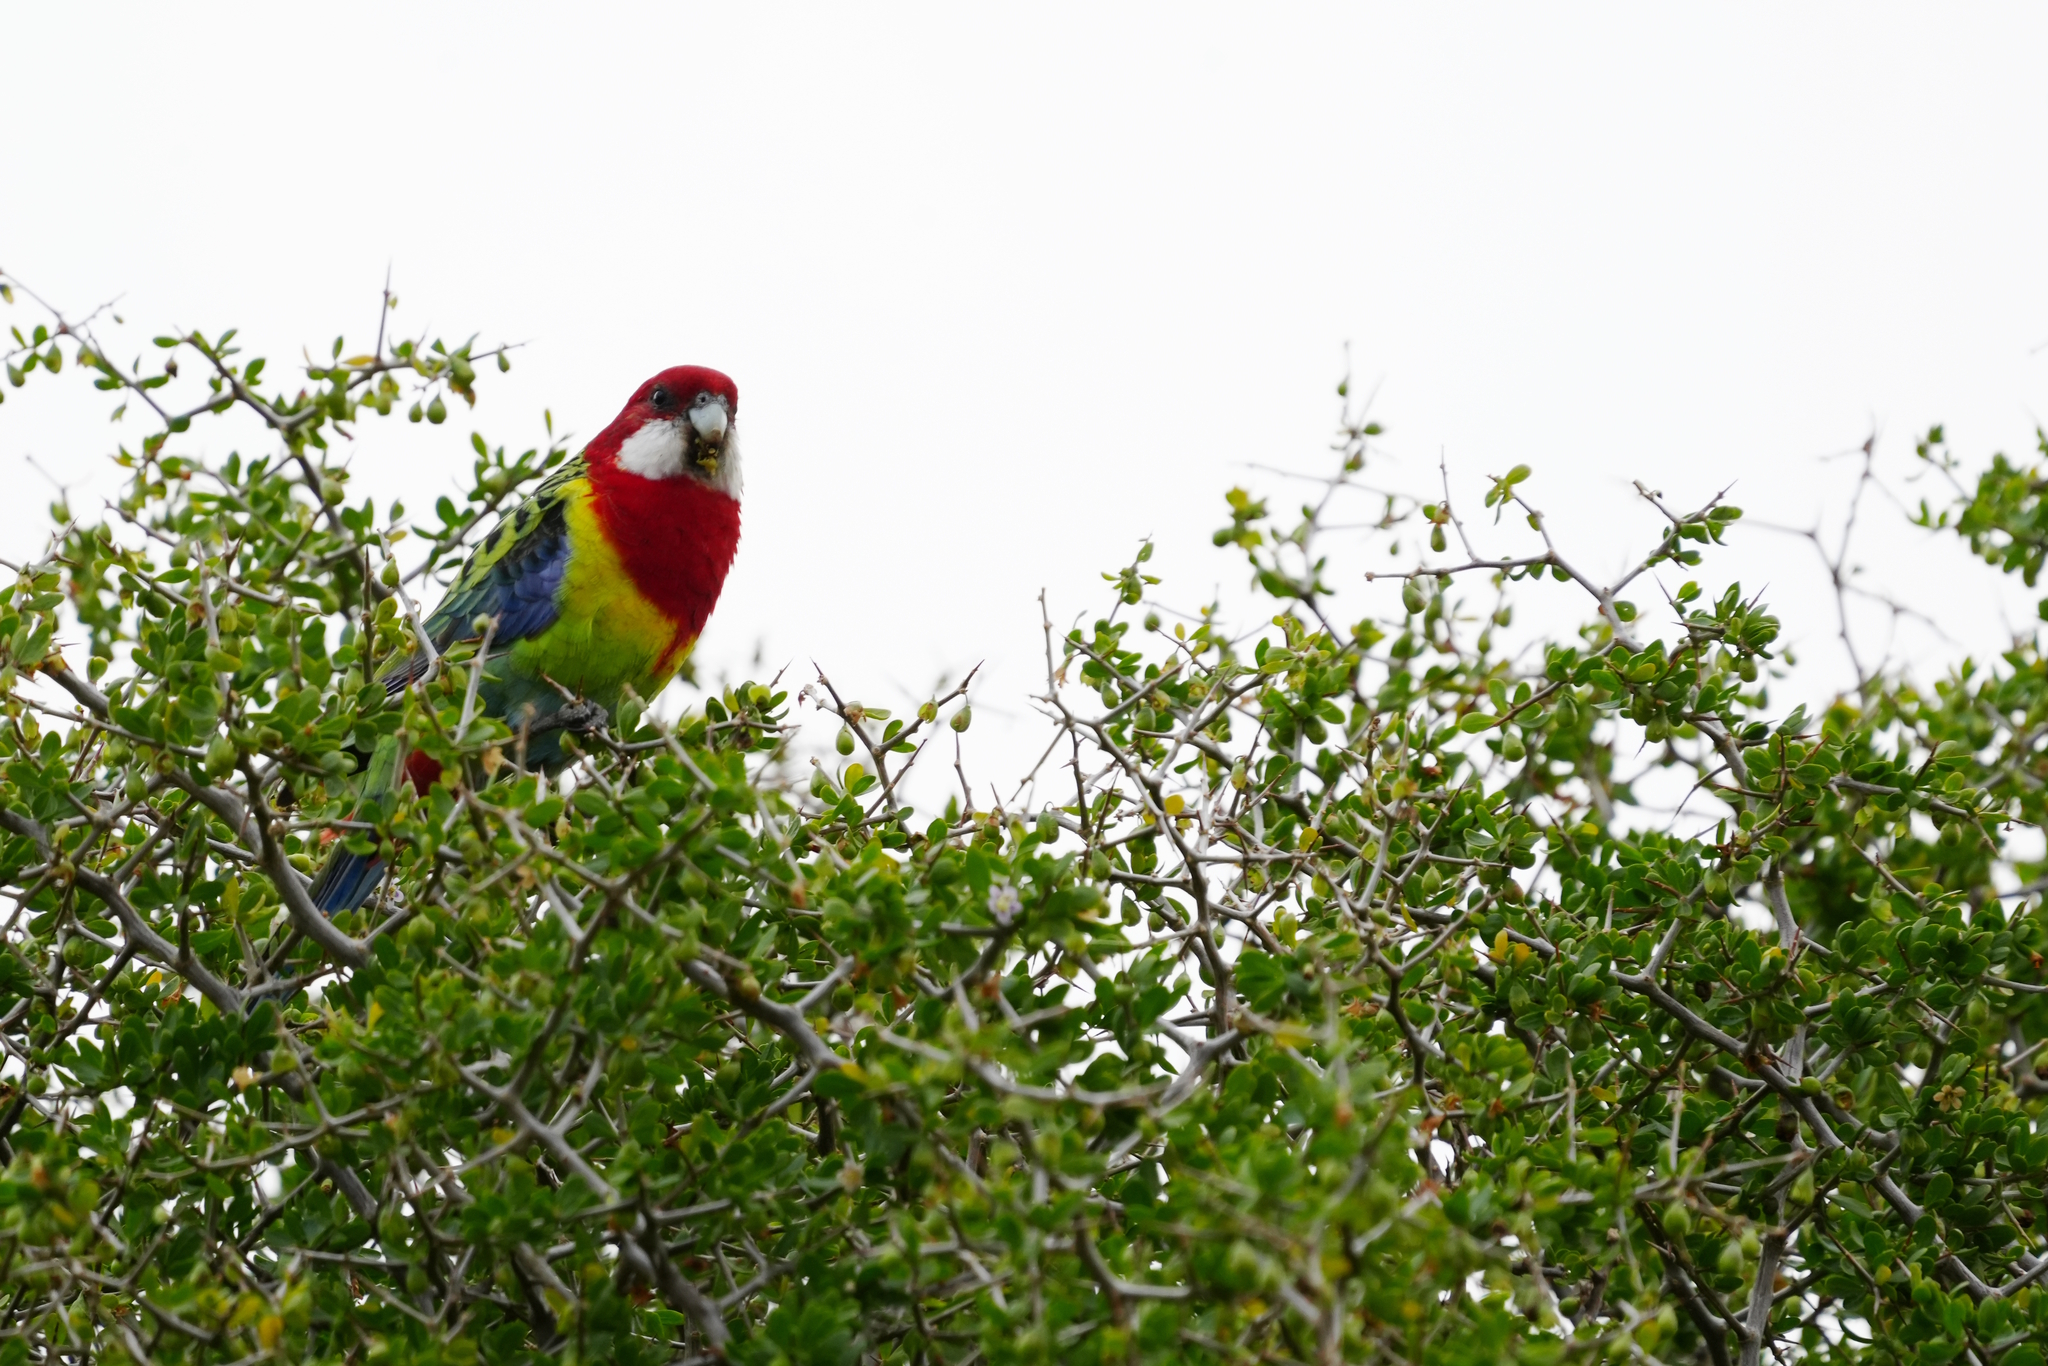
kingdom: Animalia
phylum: Chordata
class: Aves
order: Psittaciformes
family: Psittacidae
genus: Platycercus
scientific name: Platycercus eximius
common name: Eastern rosella
